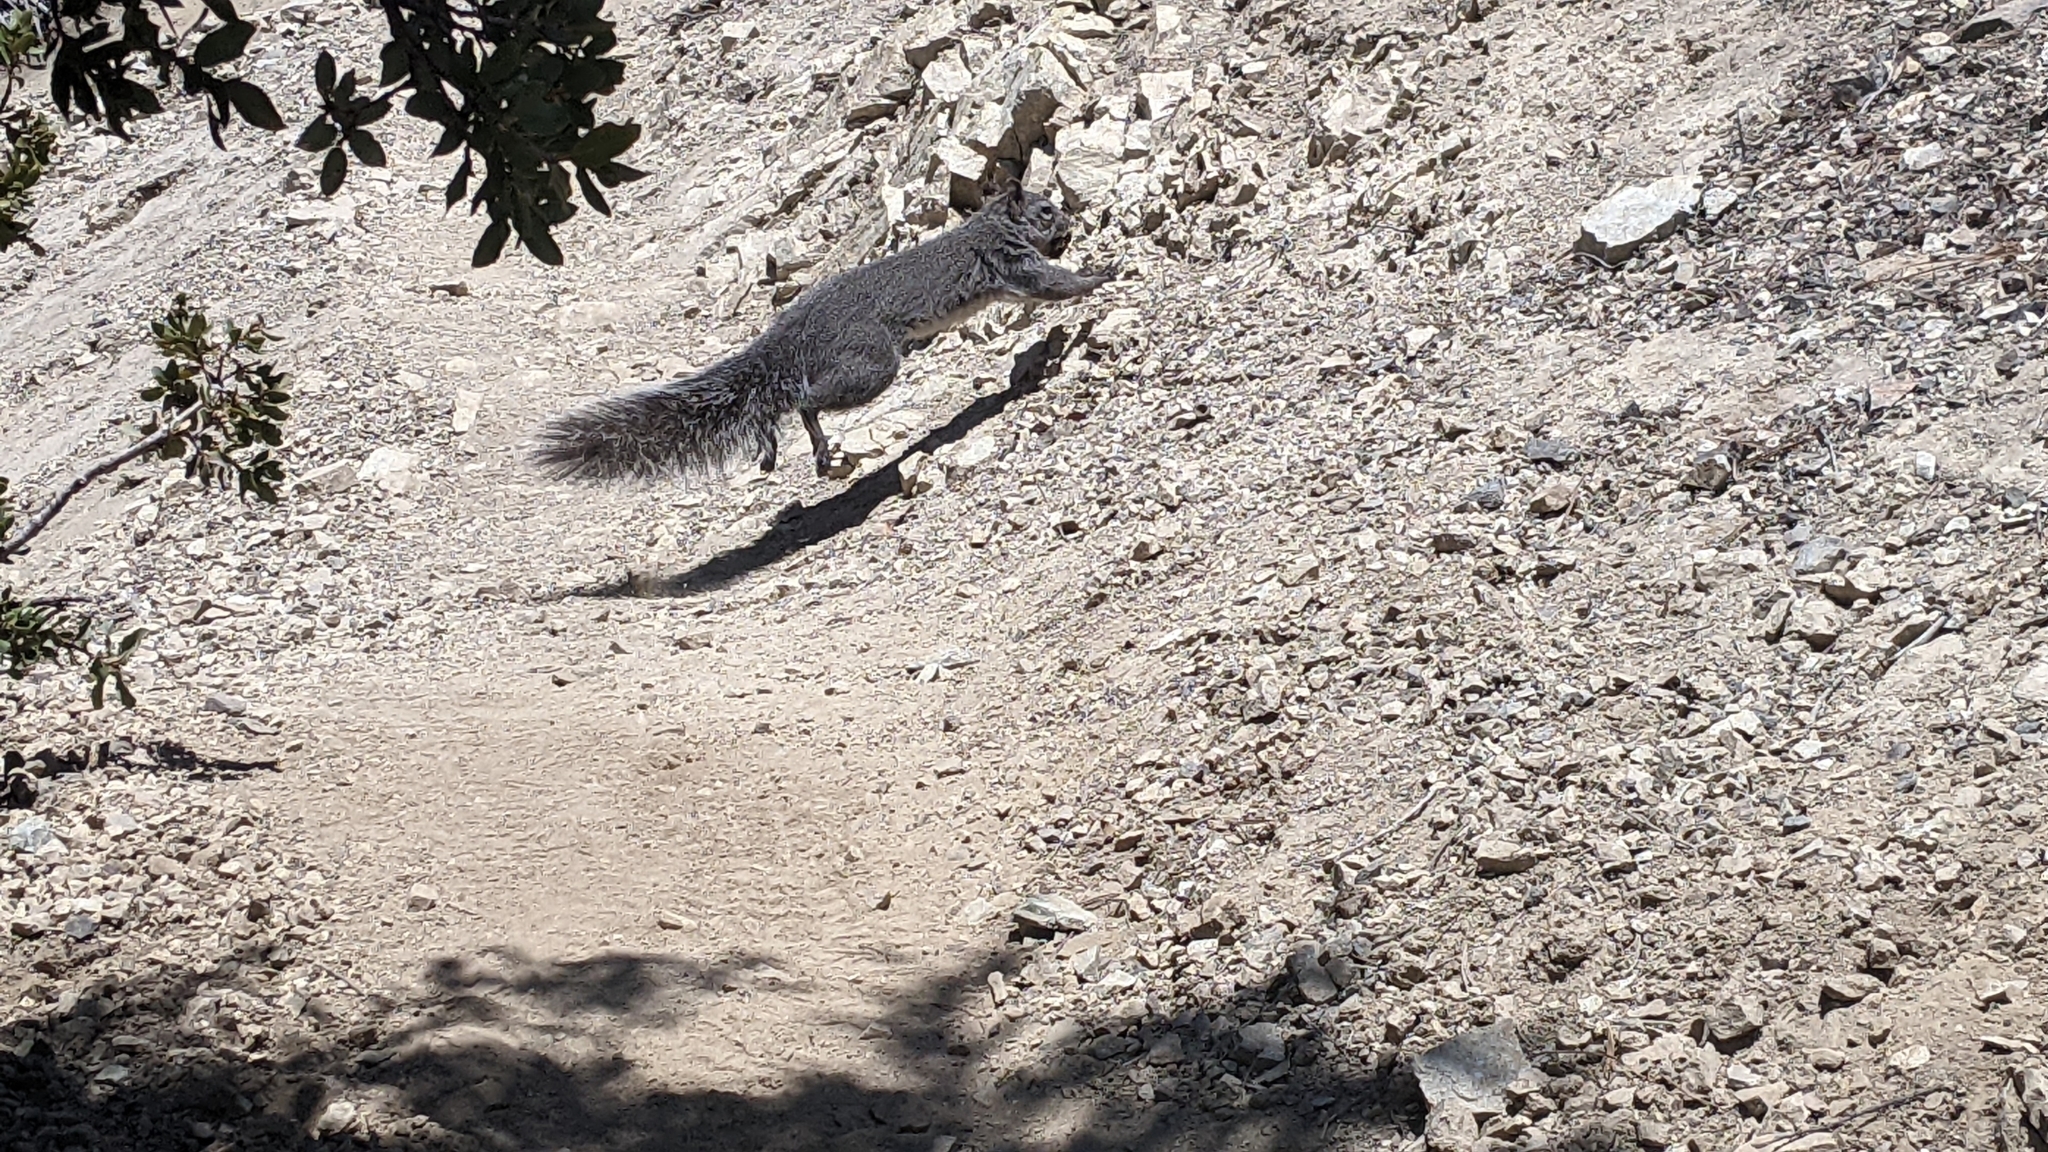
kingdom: Animalia
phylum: Chordata
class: Mammalia
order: Rodentia
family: Sciuridae
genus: Sciurus
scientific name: Sciurus griseus
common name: Western gray squirrel
